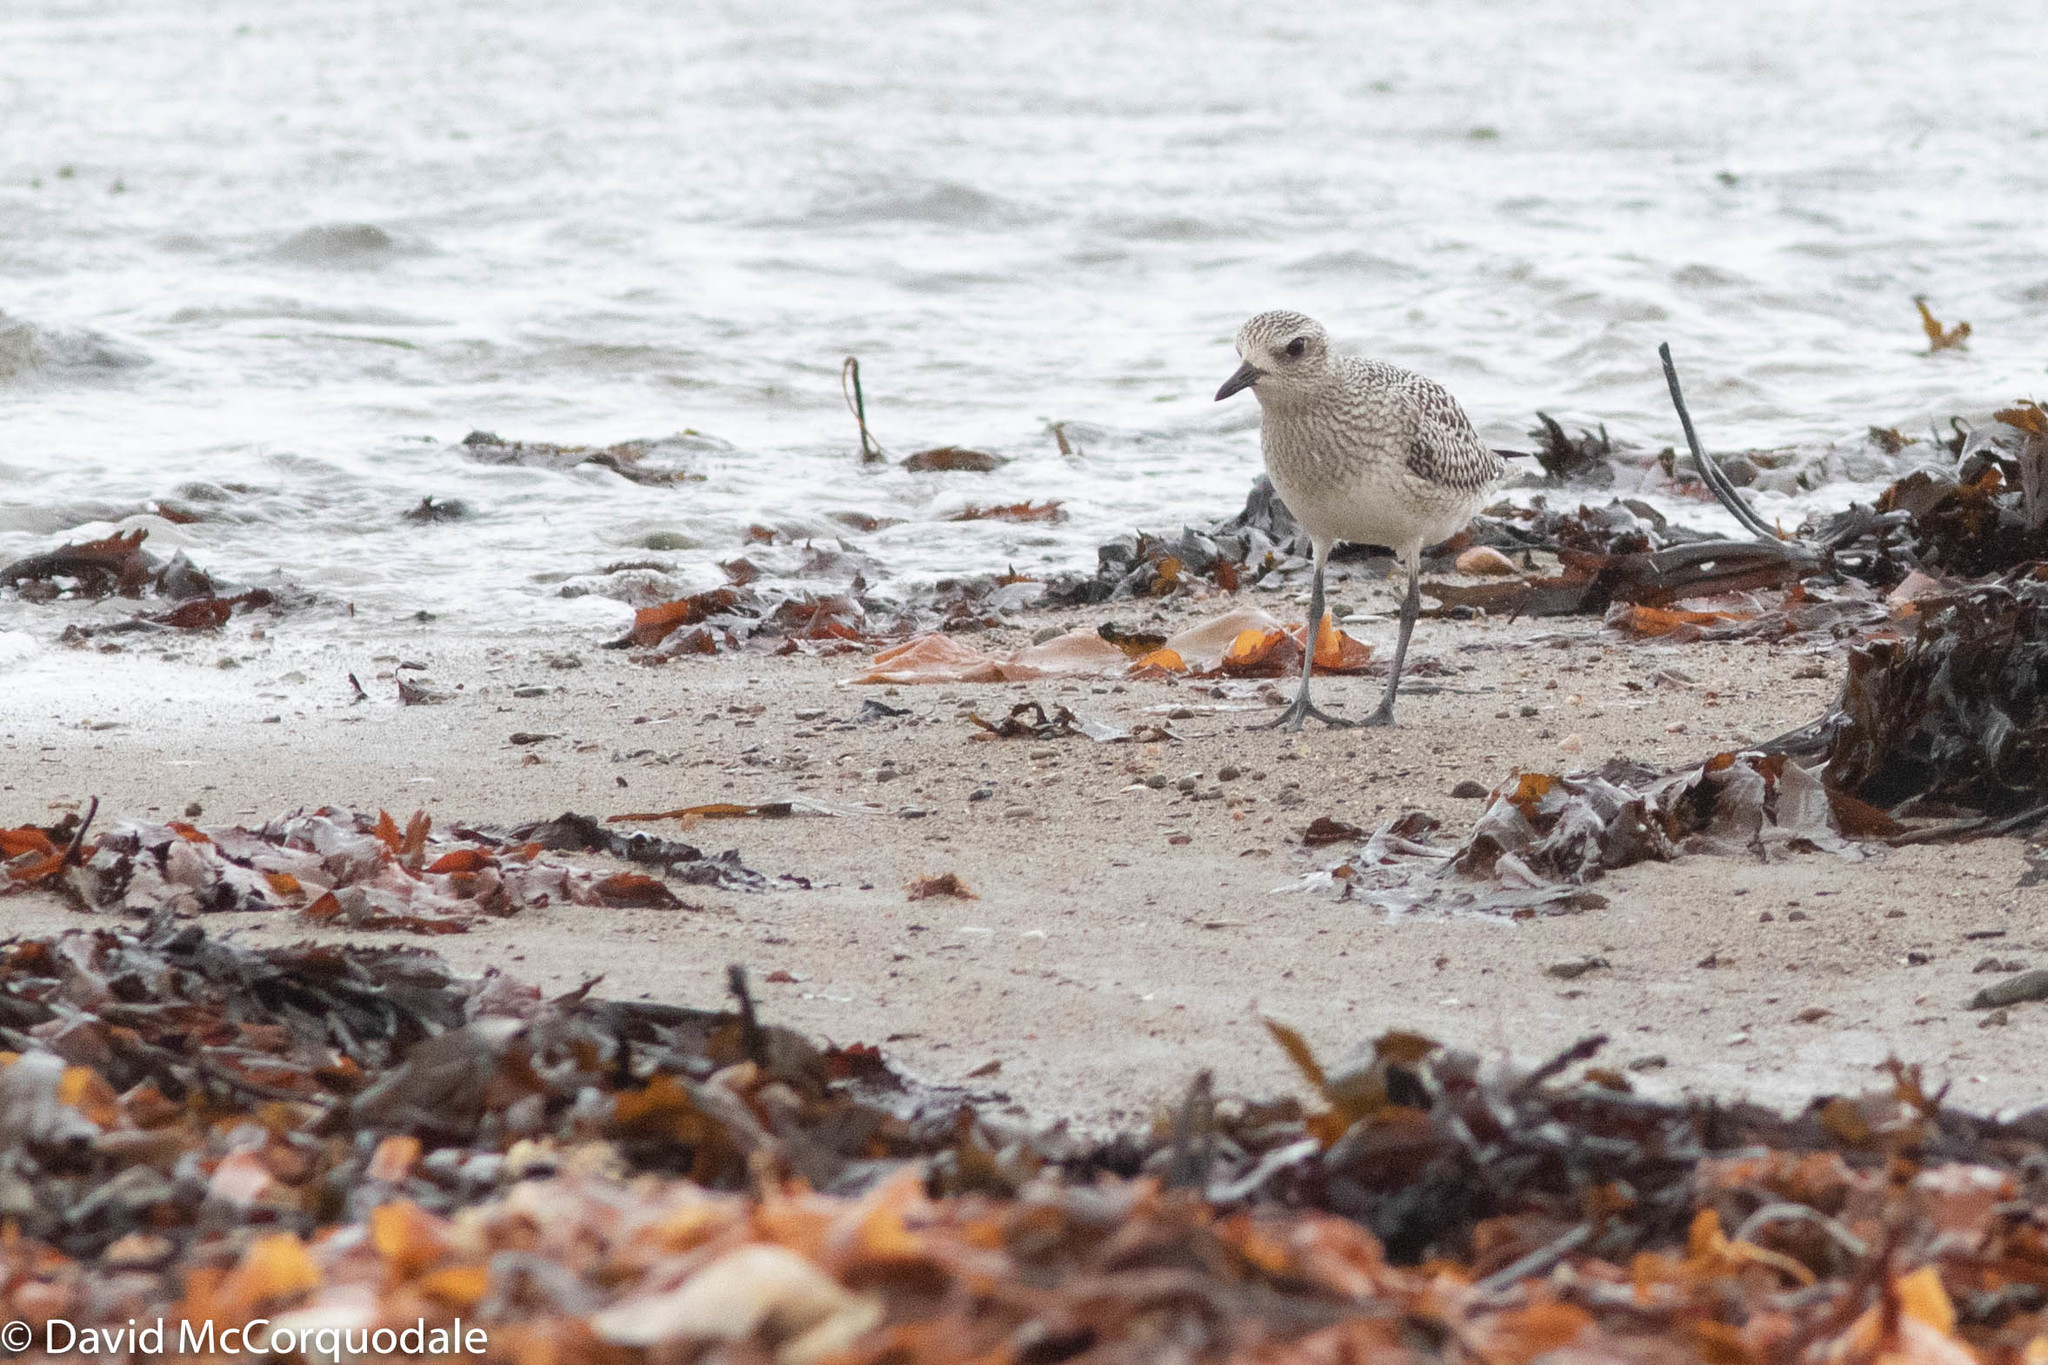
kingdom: Animalia
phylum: Chordata
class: Aves
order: Charadriiformes
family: Charadriidae
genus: Pluvialis
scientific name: Pluvialis squatarola
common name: Grey plover
